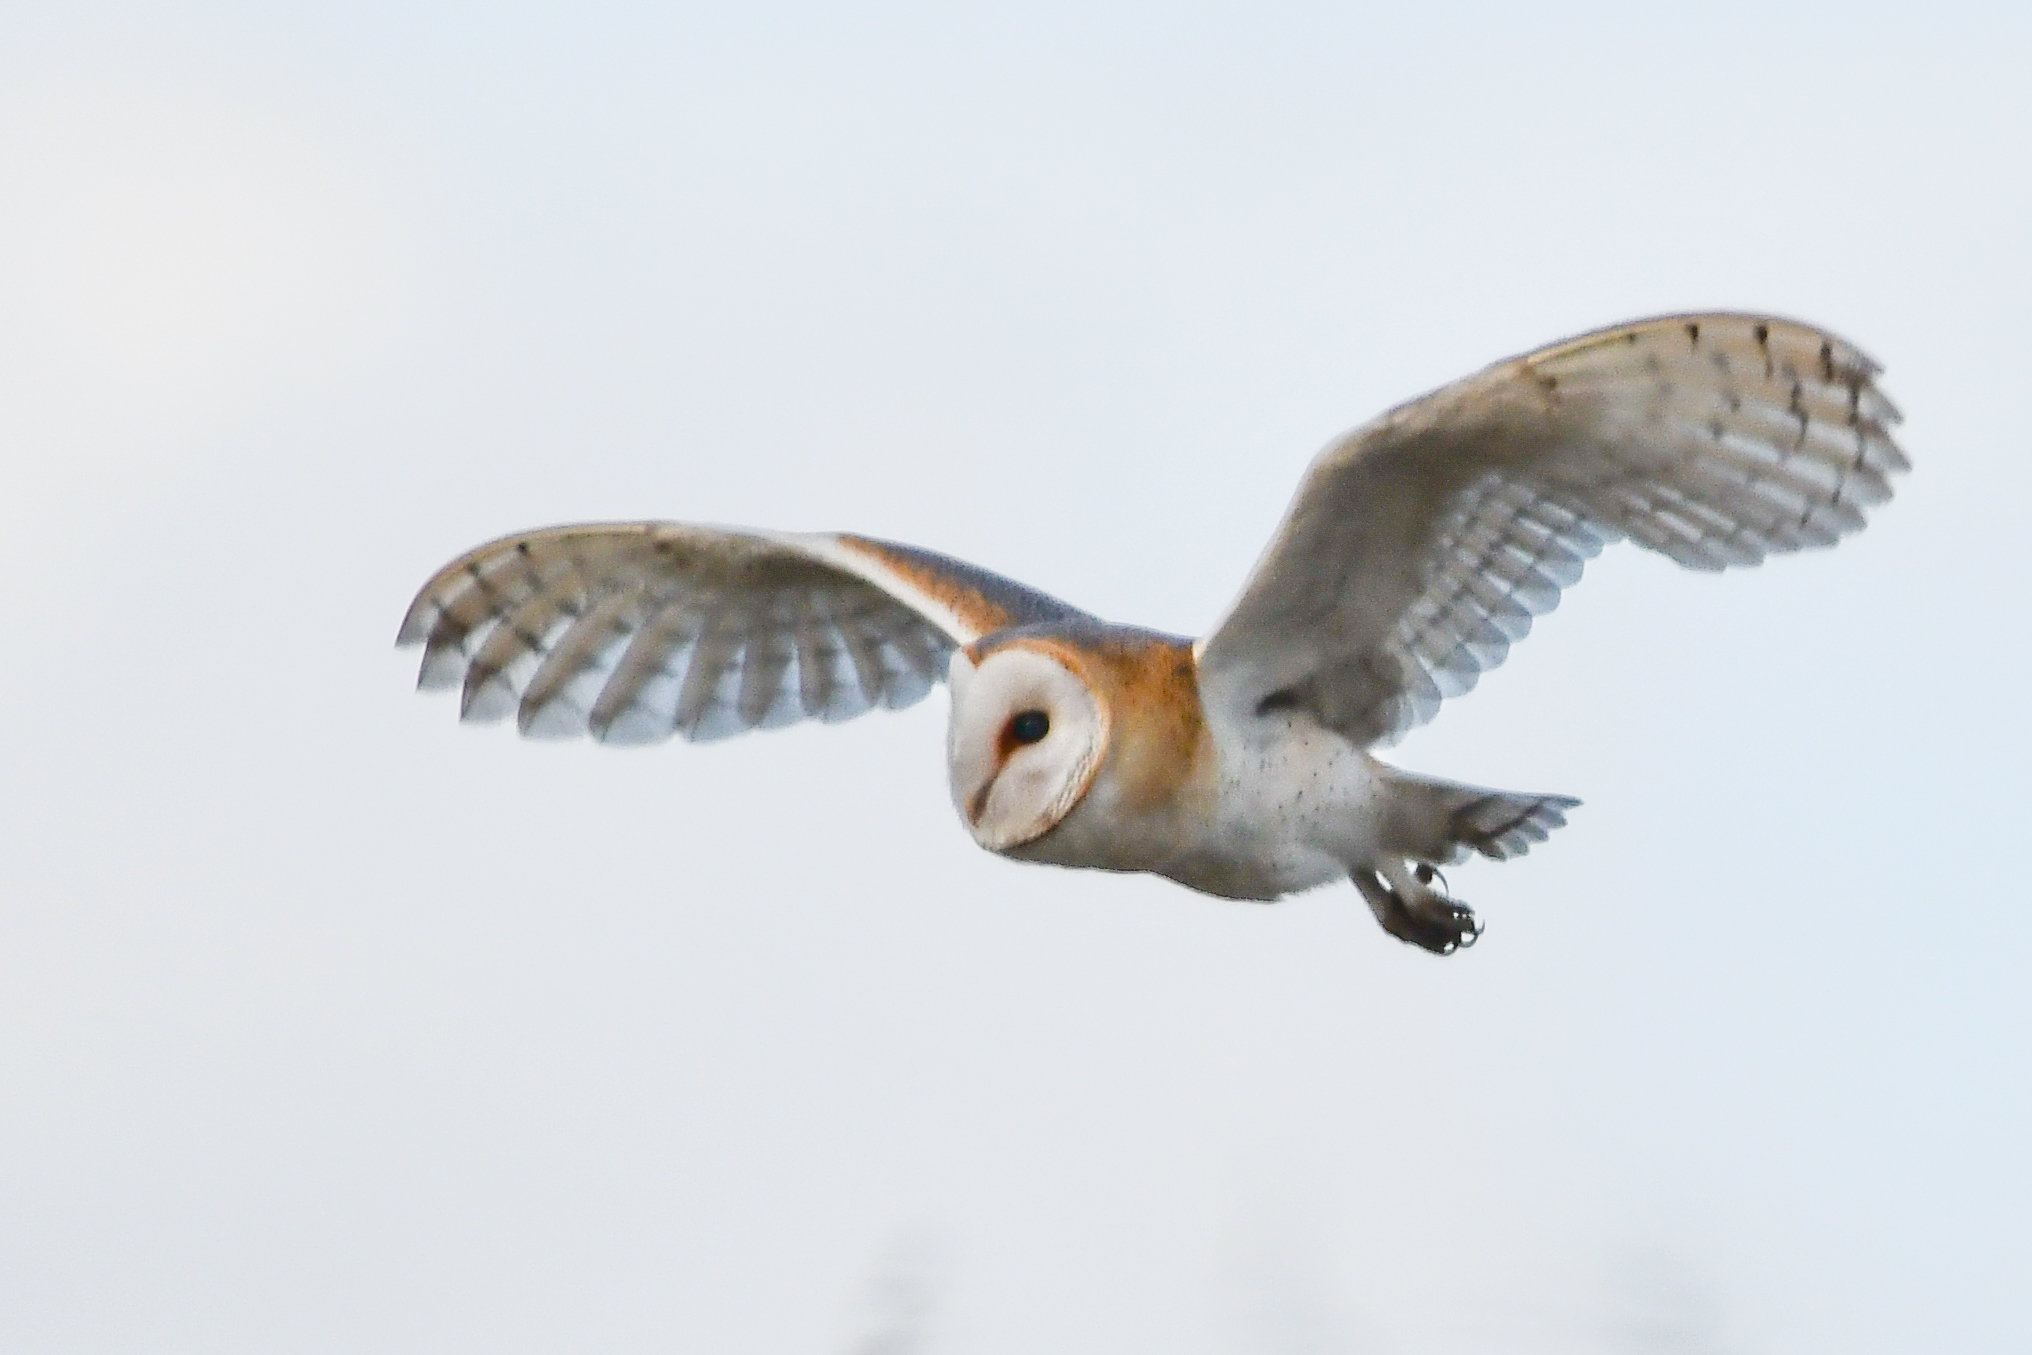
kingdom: Animalia
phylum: Chordata
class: Aves
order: Strigiformes
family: Tytonidae
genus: Tyto
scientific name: Tyto alba
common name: Barn owl
